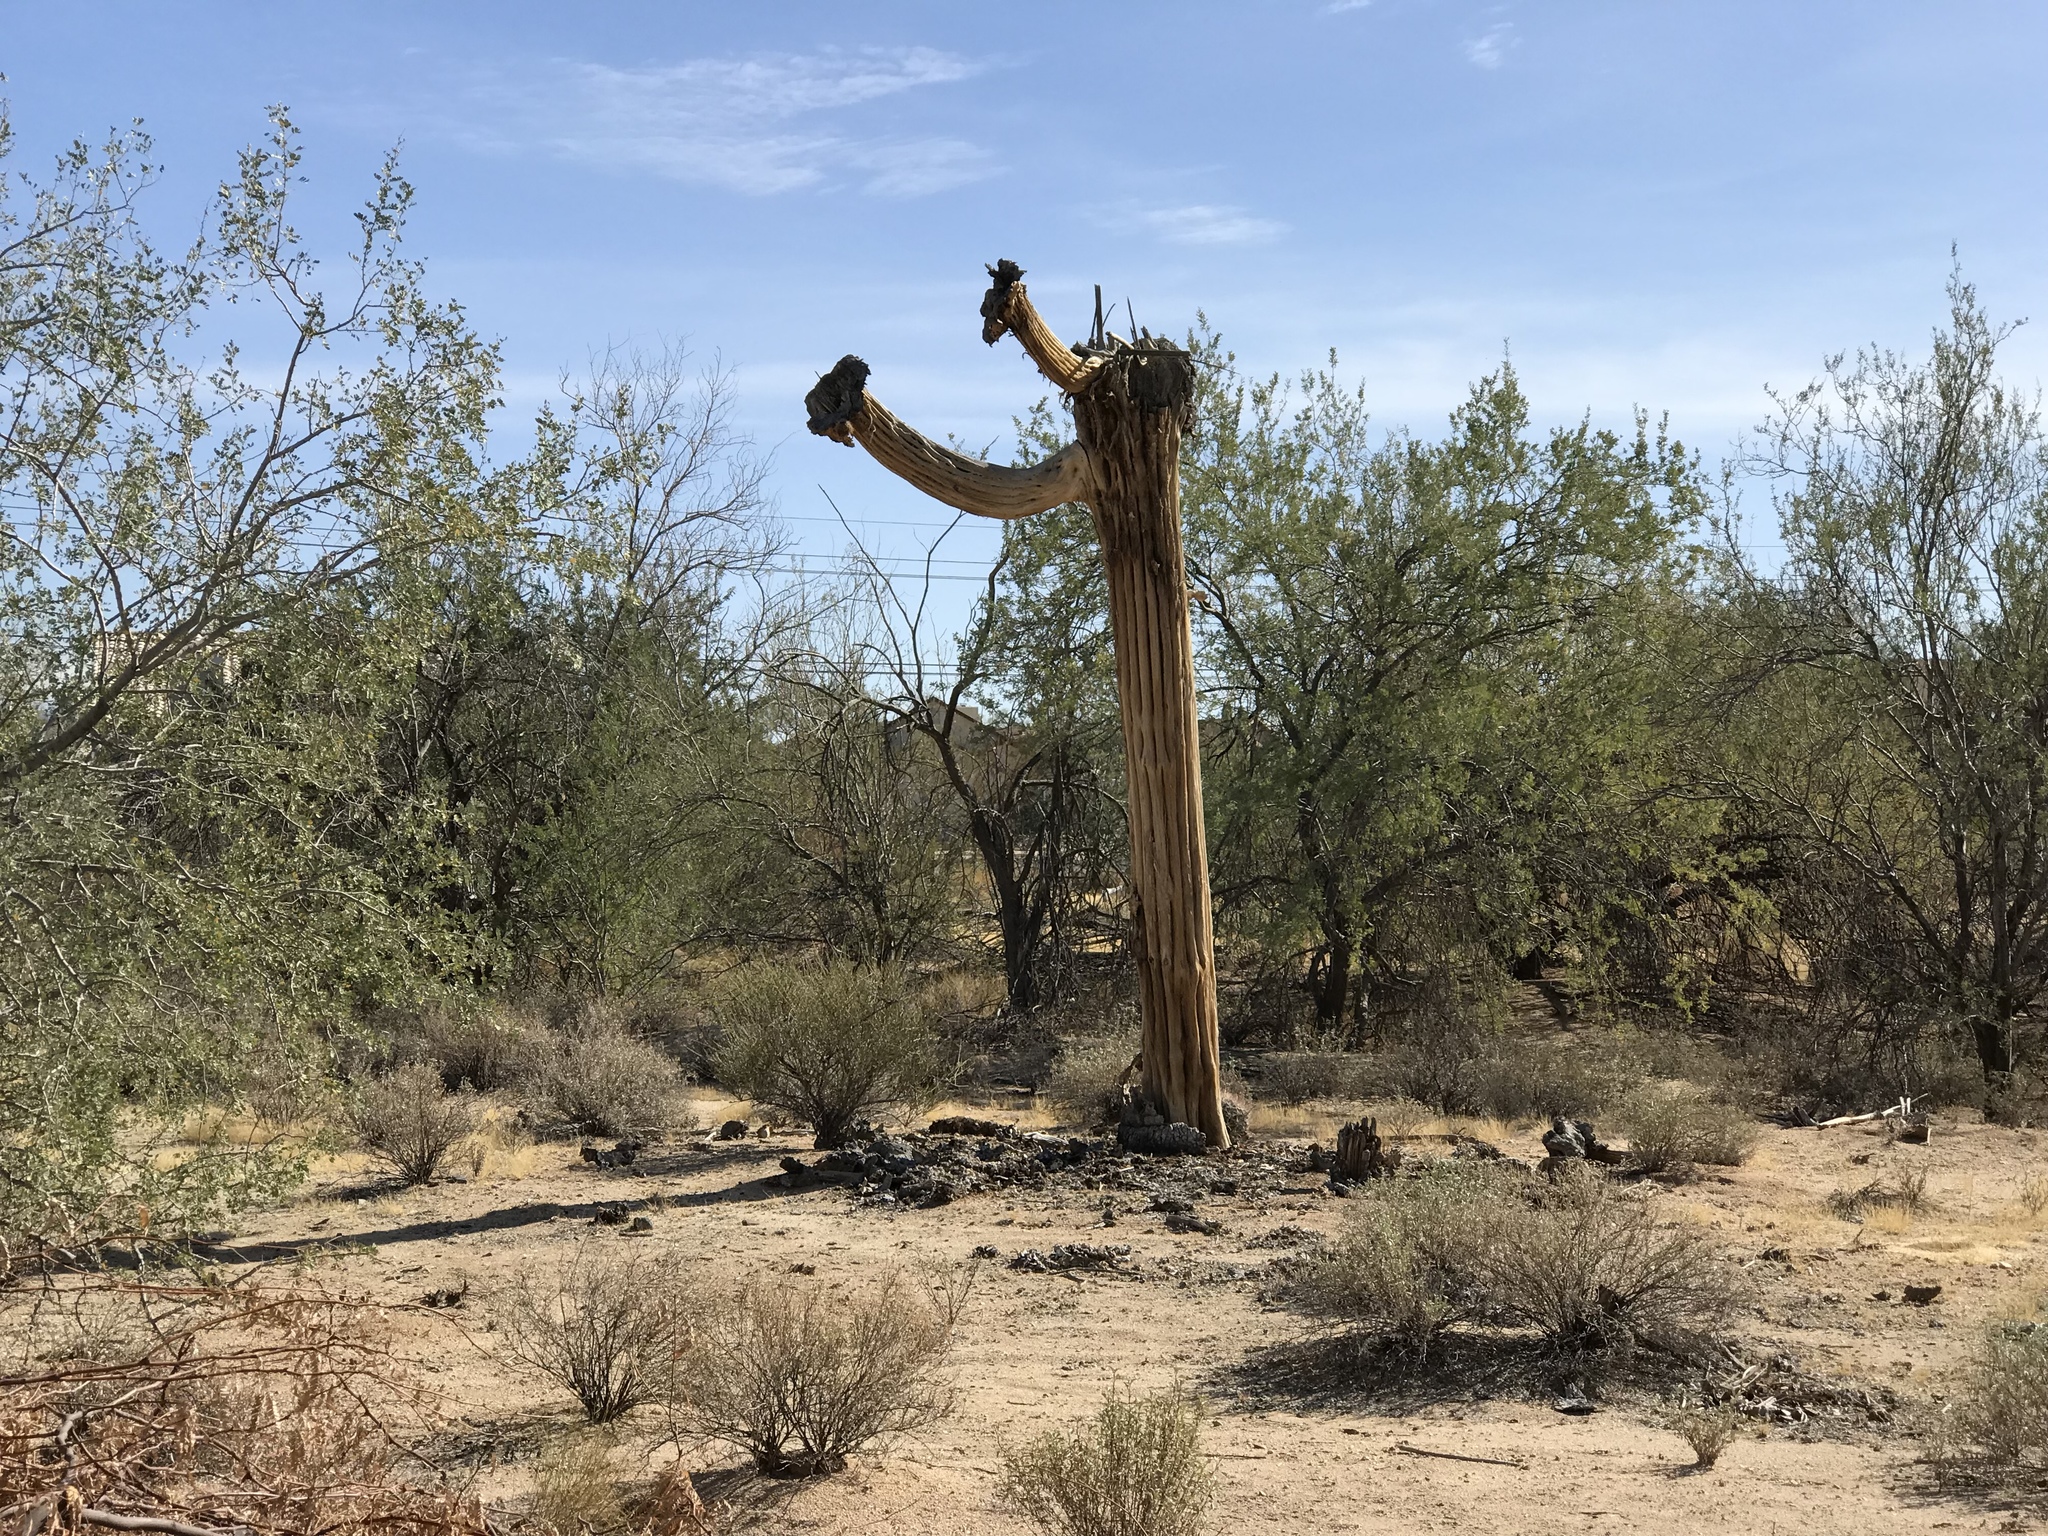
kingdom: Plantae
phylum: Tracheophyta
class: Magnoliopsida
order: Caryophyllales
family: Cactaceae
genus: Carnegiea
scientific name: Carnegiea gigantea
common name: Saguaro
